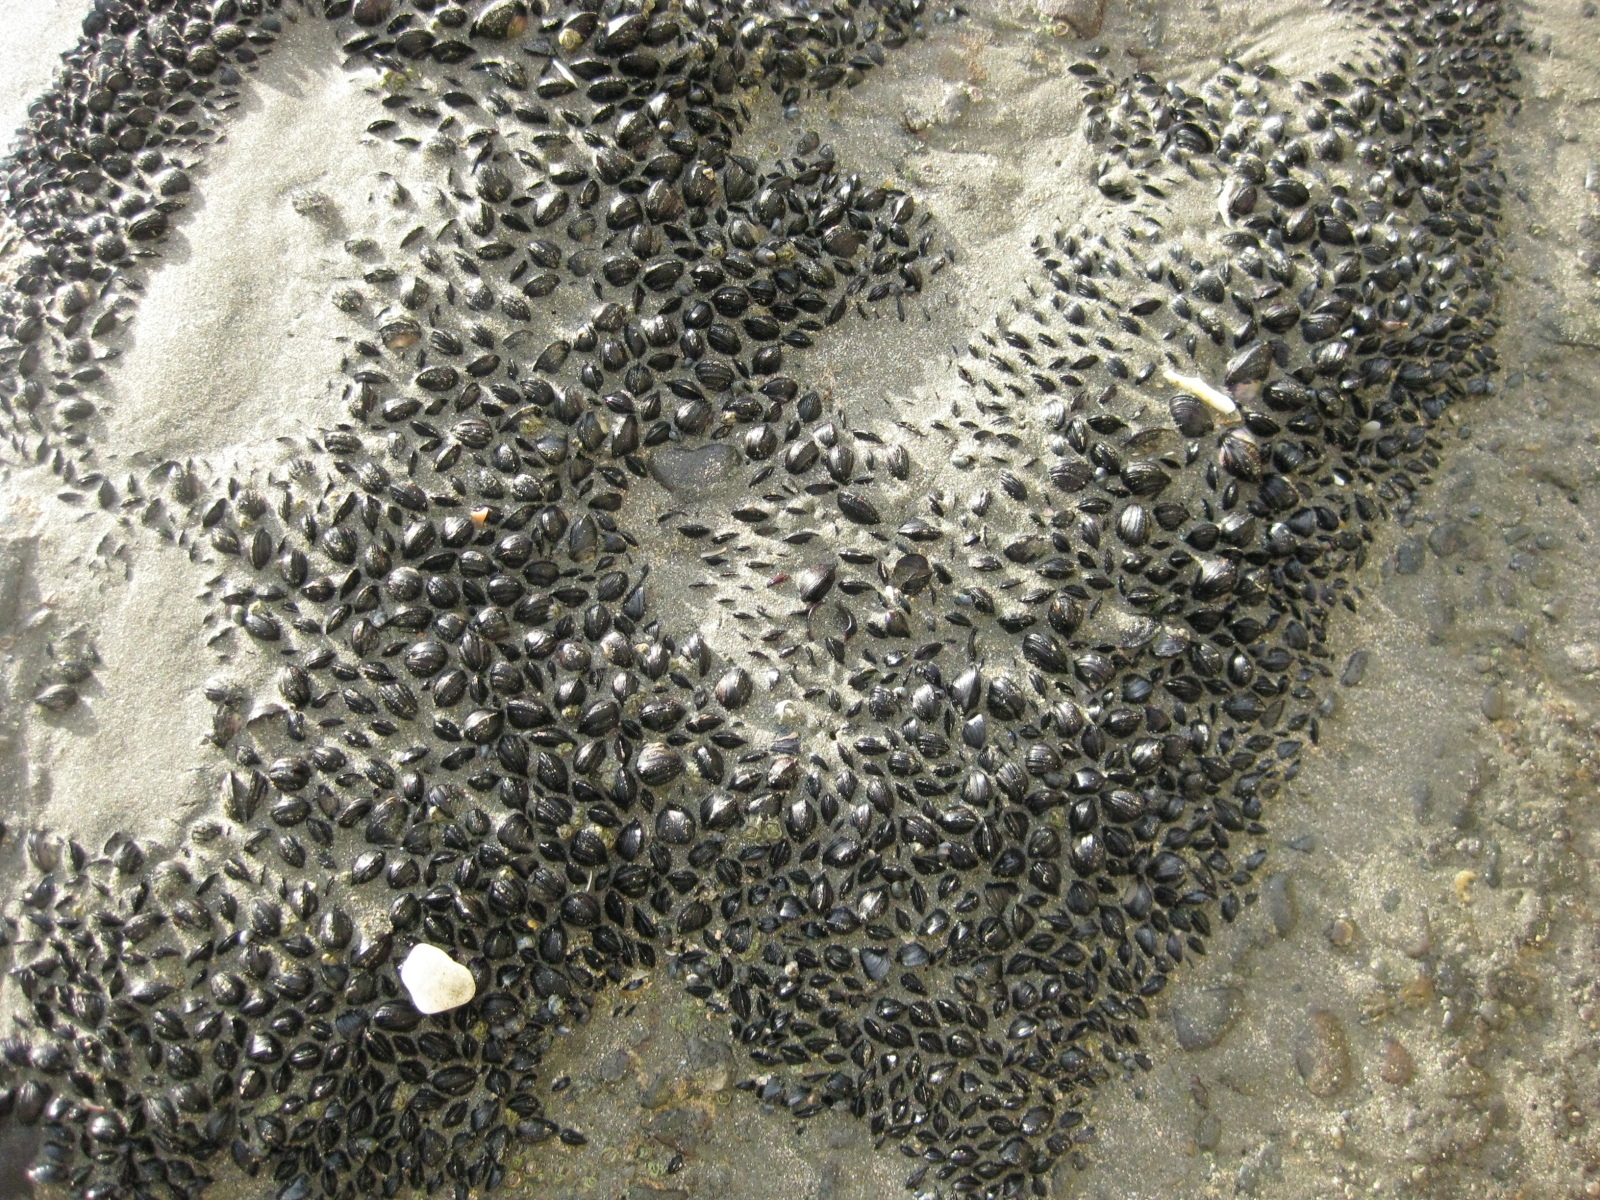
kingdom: Animalia
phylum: Mollusca
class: Bivalvia
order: Mytilida
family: Mytilidae
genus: Xenostrobus
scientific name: Xenostrobus neozelanicus
